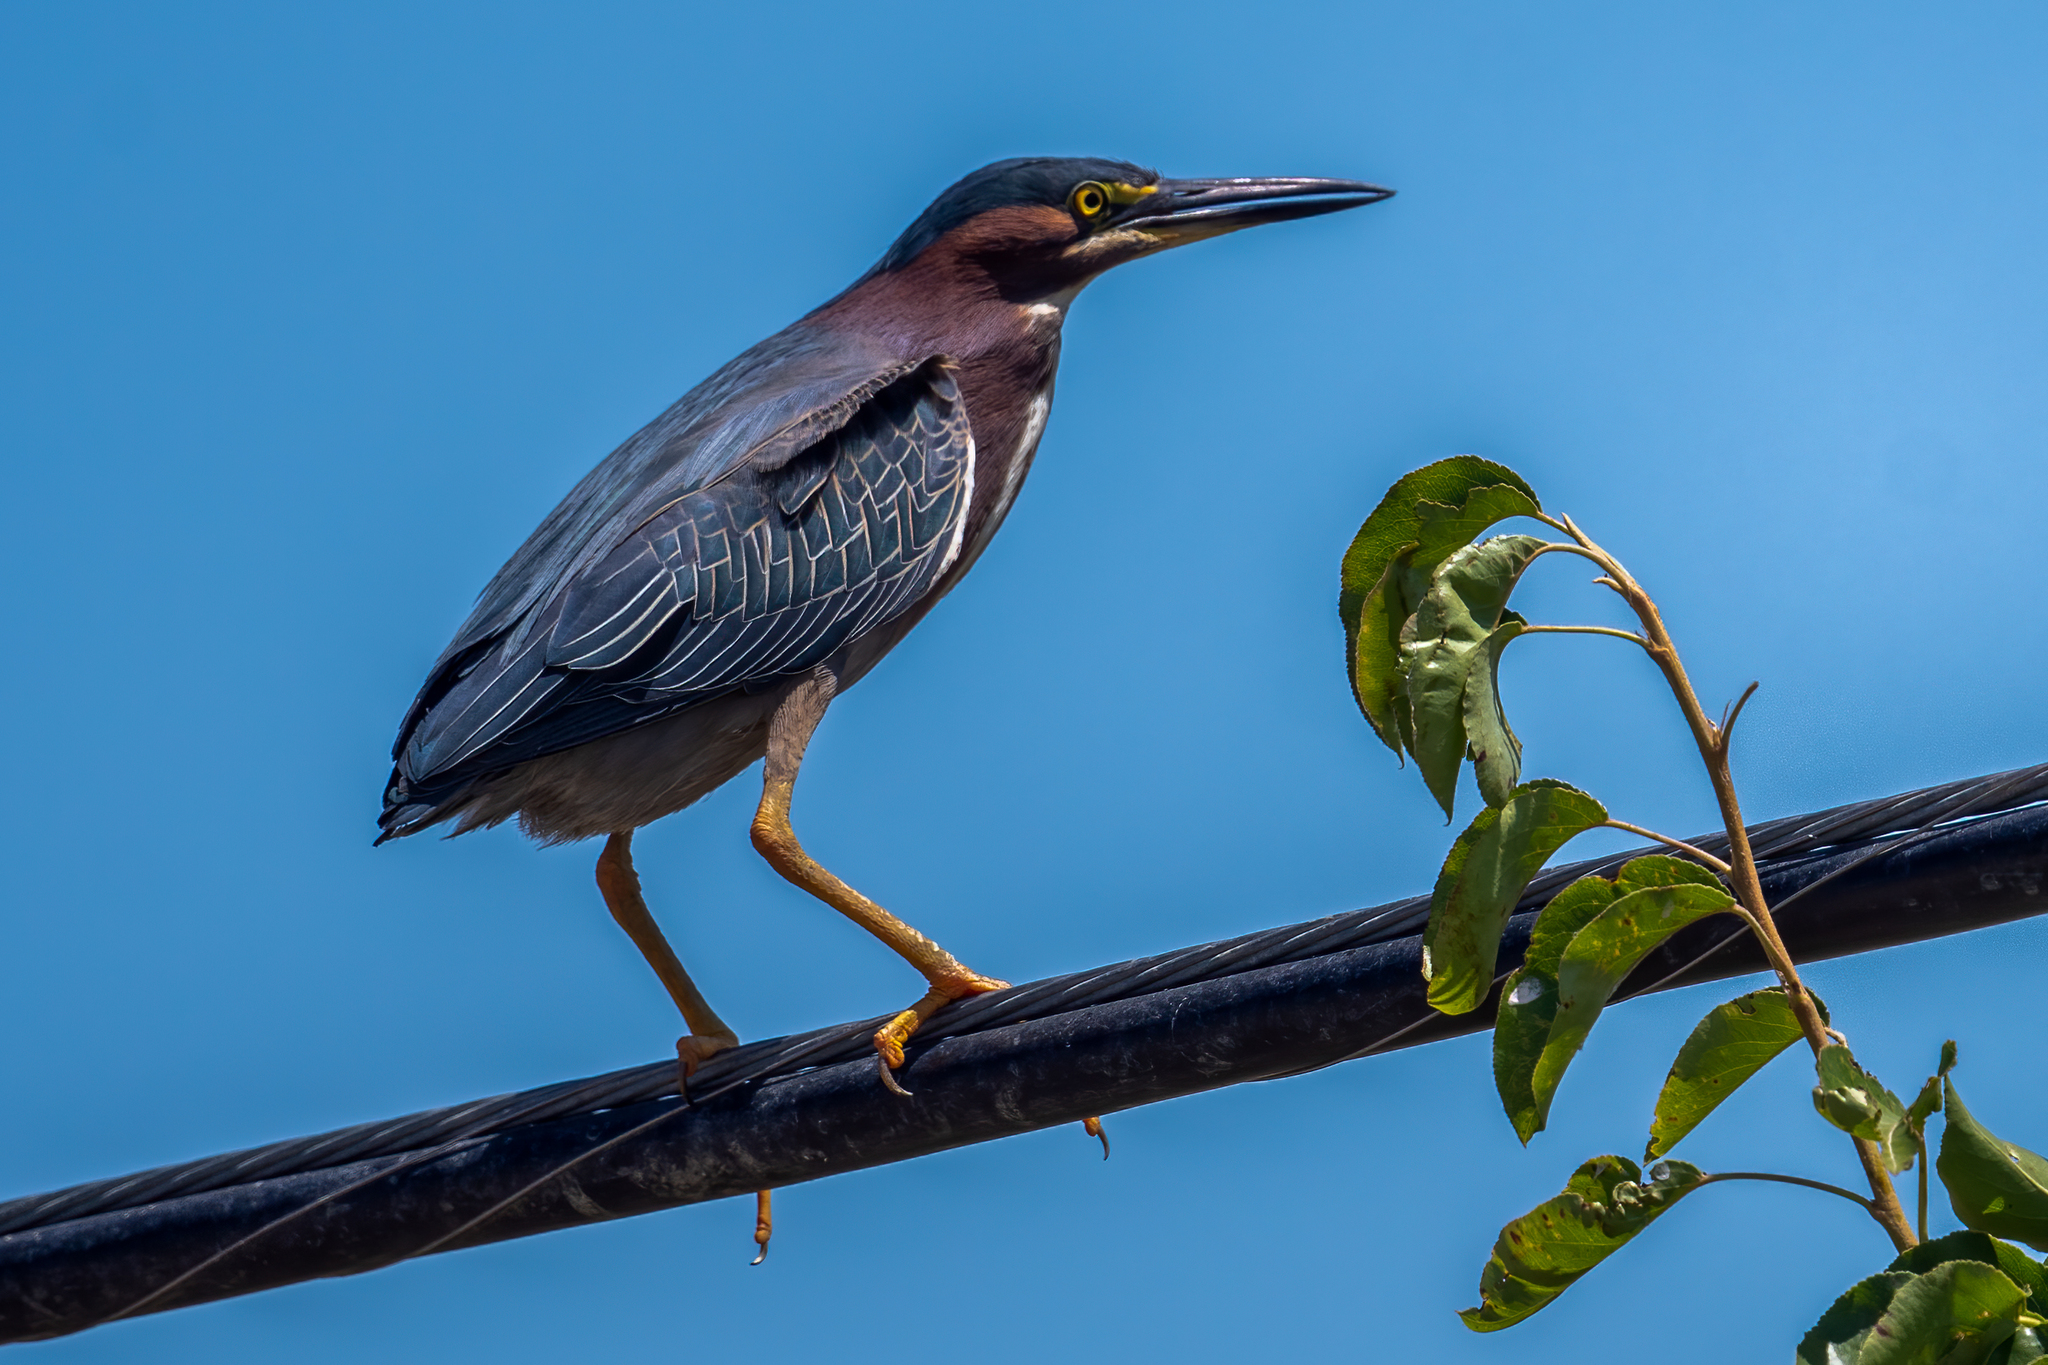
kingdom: Animalia
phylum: Chordata
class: Aves
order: Pelecaniformes
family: Ardeidae
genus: Butorides
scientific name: Butorides virescens
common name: Green heron
